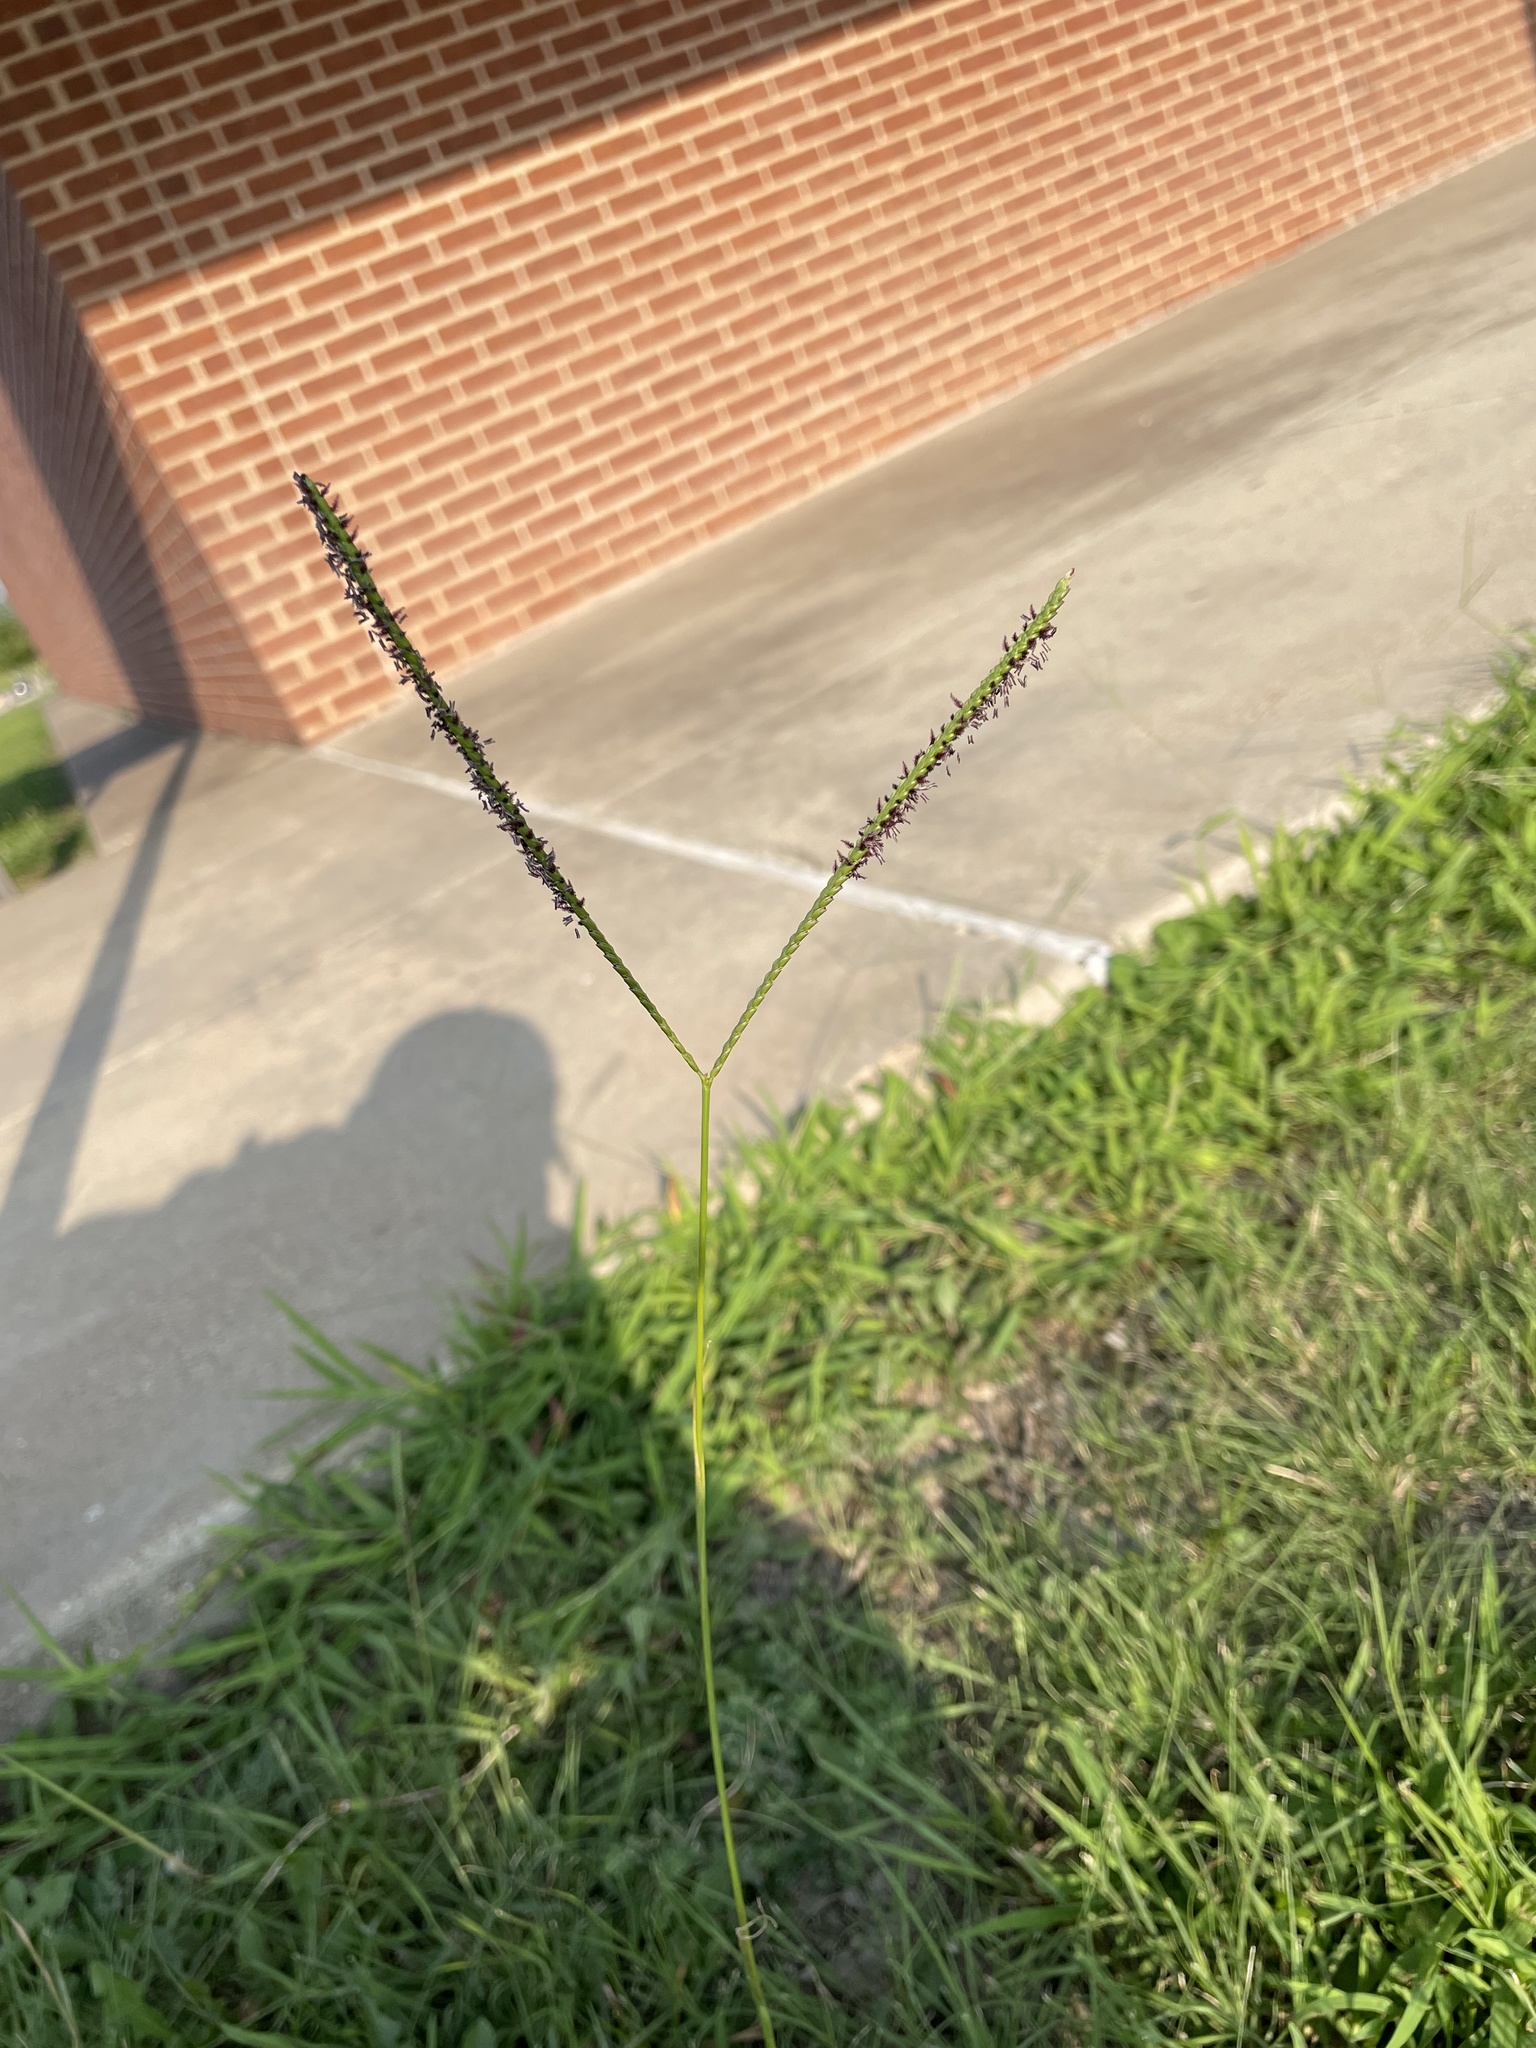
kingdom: Plantae
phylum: Tracheophyta
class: Liliopsida
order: Poales
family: Poaceae
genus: Paspalum
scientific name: Paspalum notatum
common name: Bahiagrass
